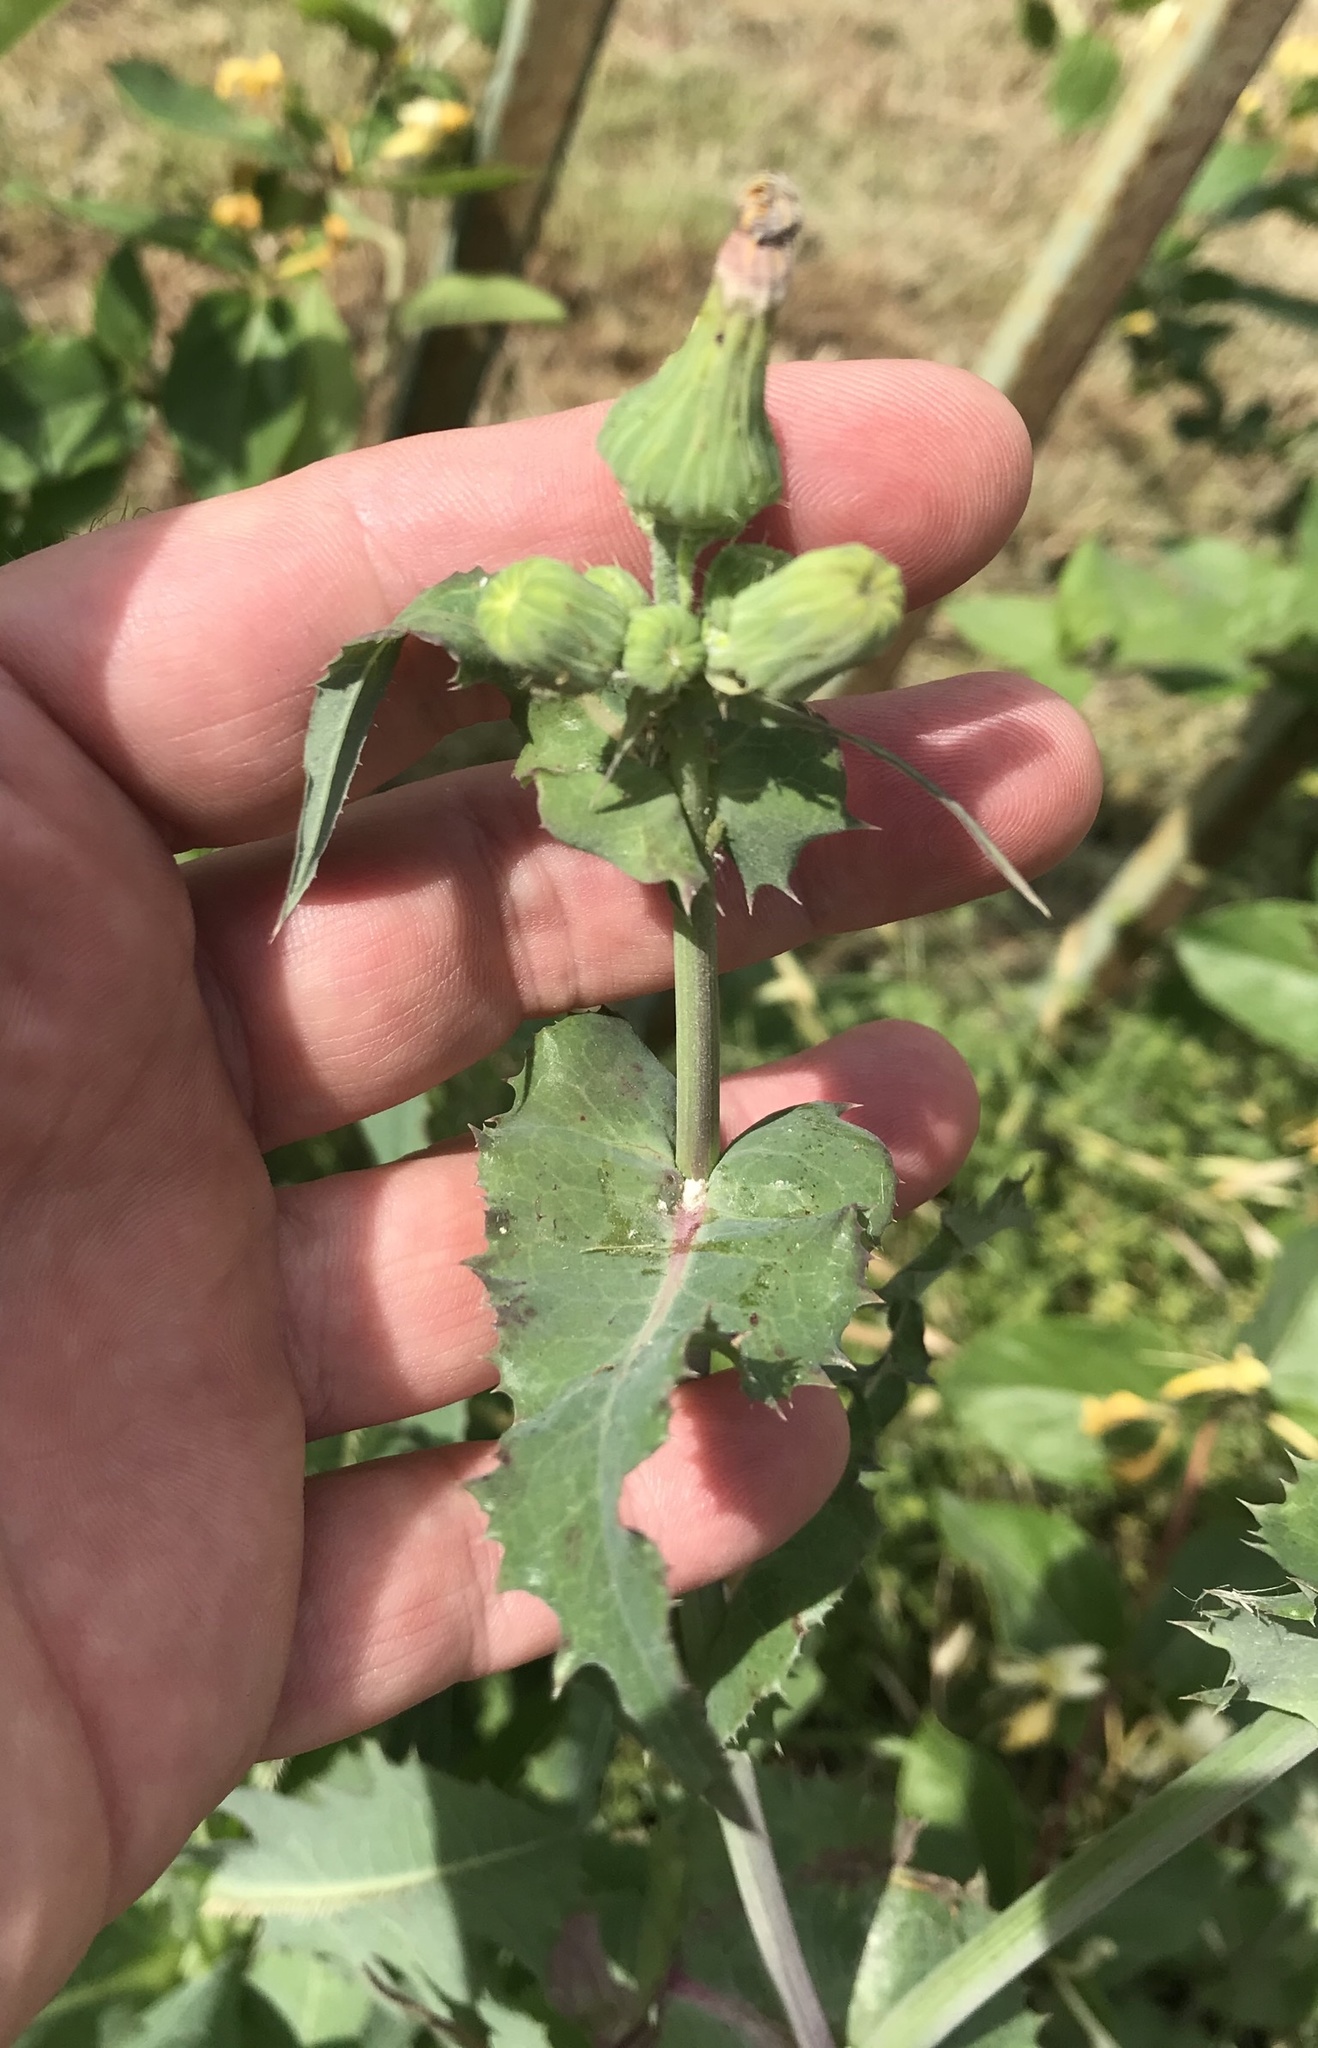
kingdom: Plantae
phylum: Tracheophyta
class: Magnoliopsida
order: Asterales
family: Asteraceae
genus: Lactuca
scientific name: Lactuca serriola
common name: Prickly lettuce
